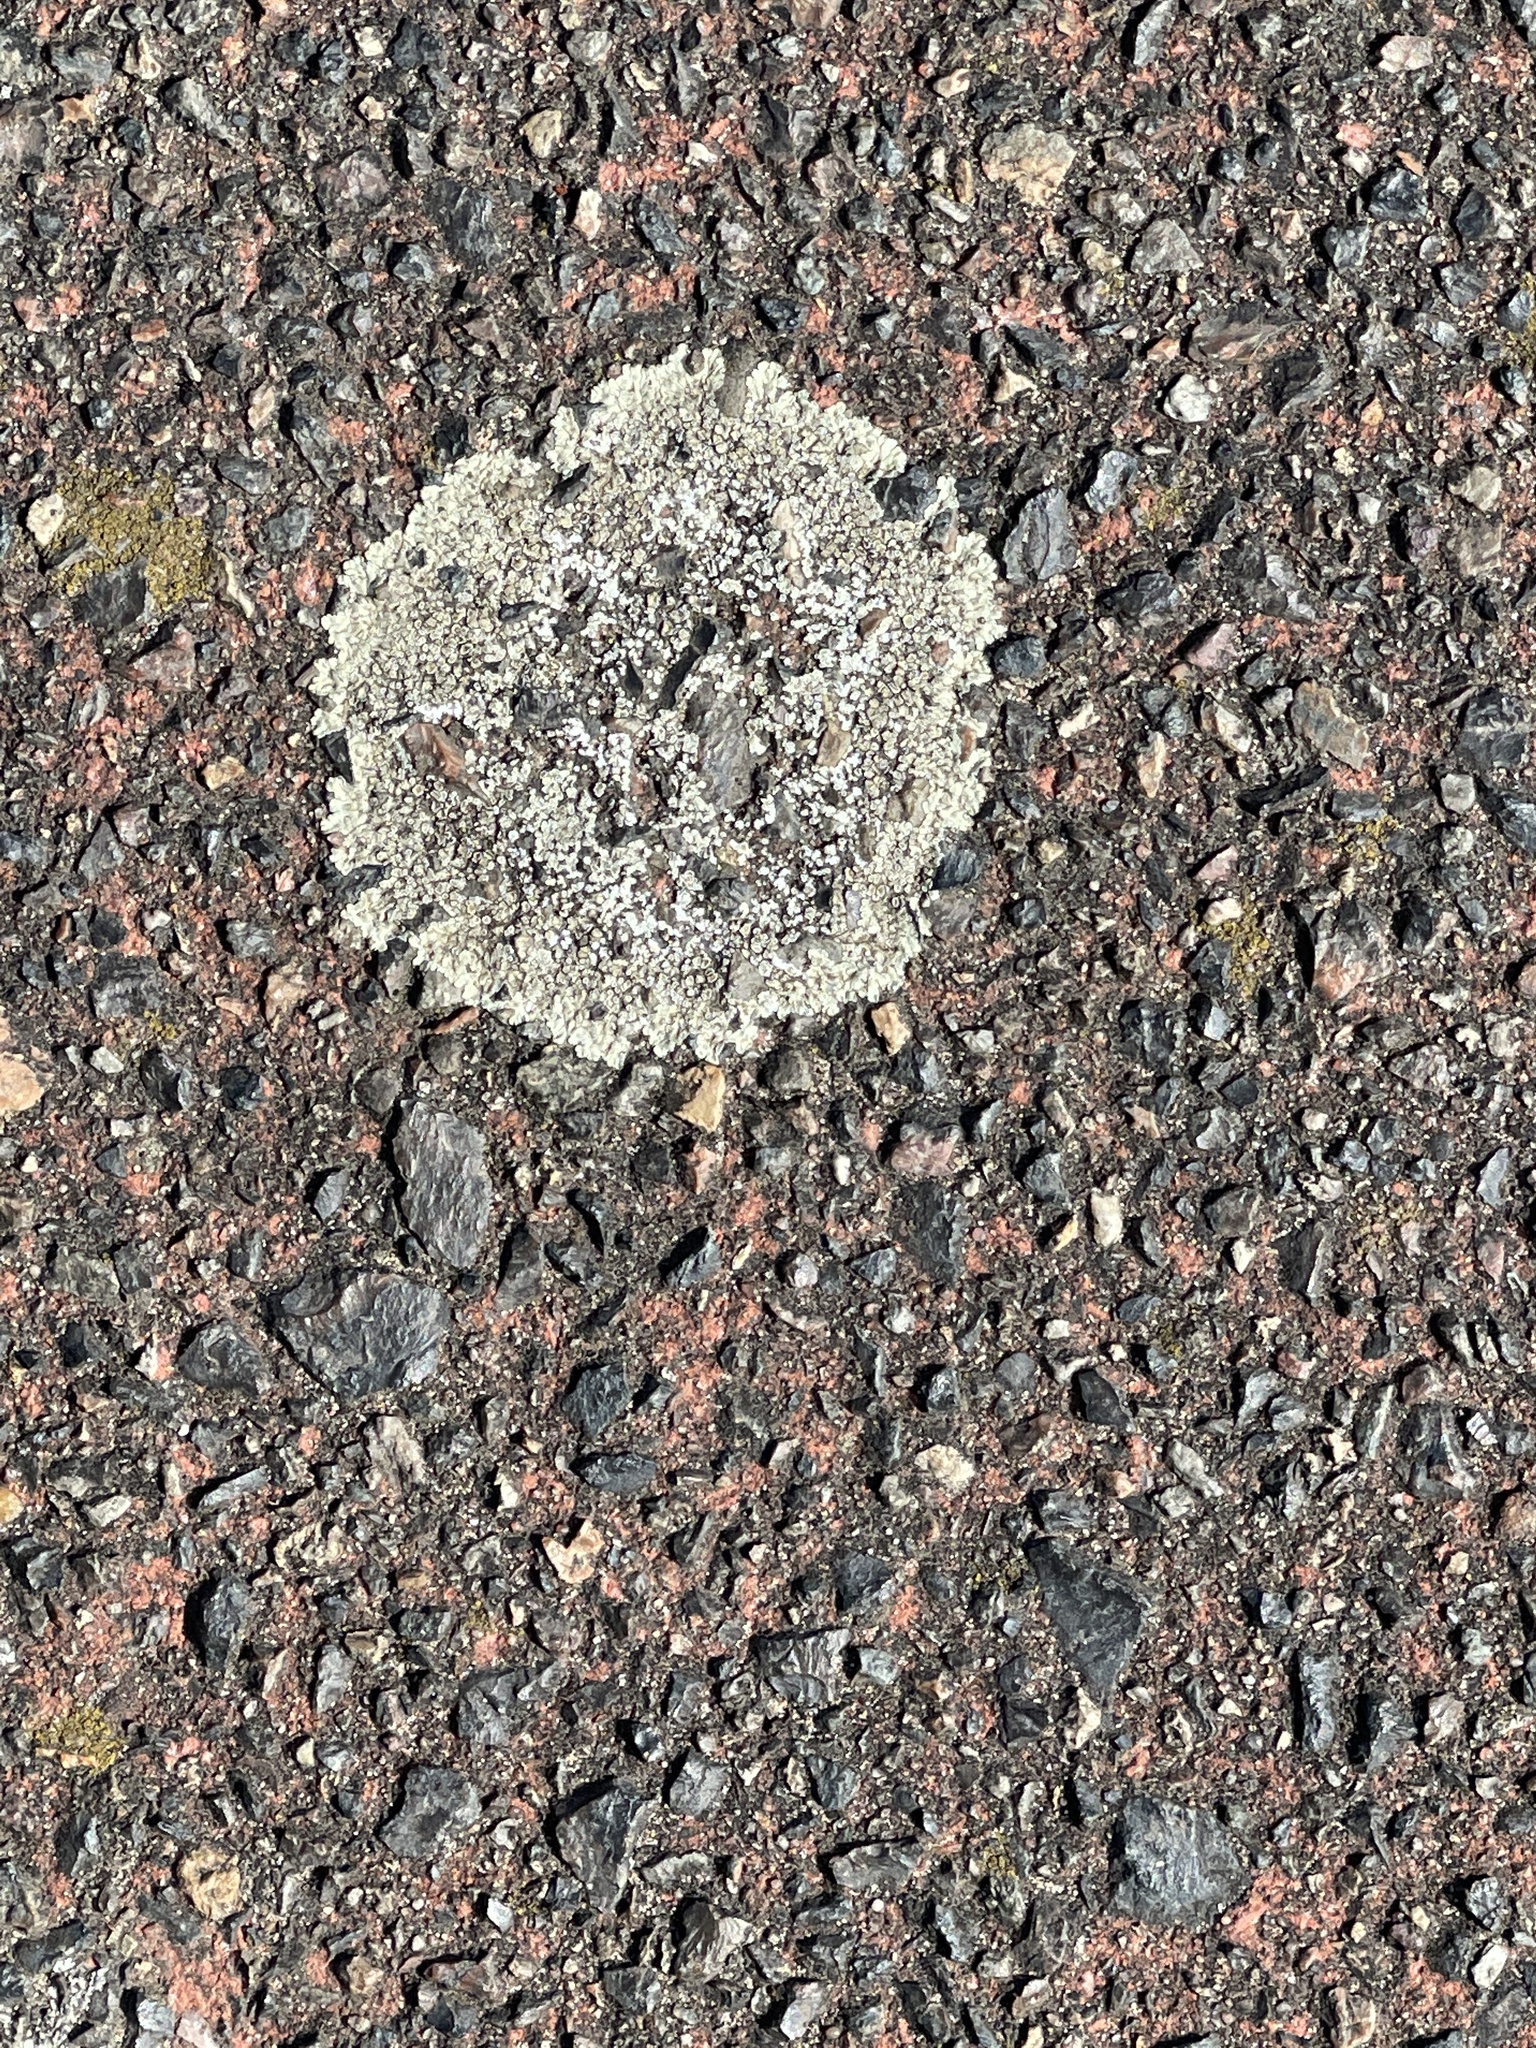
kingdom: Fungi
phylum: Ascomycota
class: Lecanoromycetes
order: Lecanorales
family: Lecanoraceae
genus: Protoparmeliopsis
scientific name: Protoparmeliopsis muralis
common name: Stonewall rim lichen
